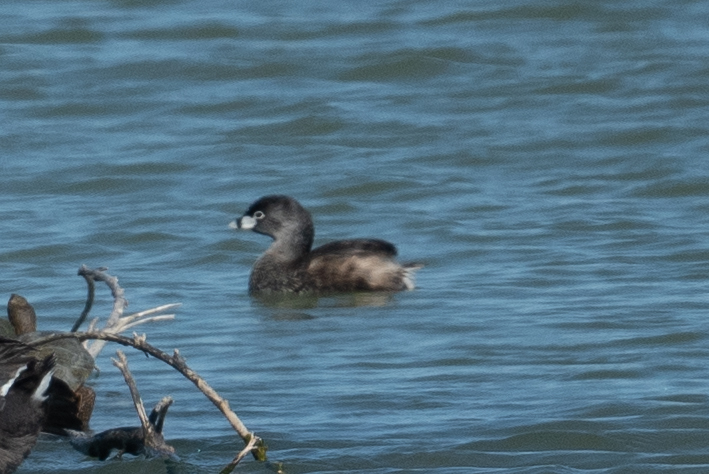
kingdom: Animalia
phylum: Chordata
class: Aves
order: Podicipediformes
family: Podicipedidae
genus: Podilymbus
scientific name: Podilymbus podiceps
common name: Pied-billed grebe
